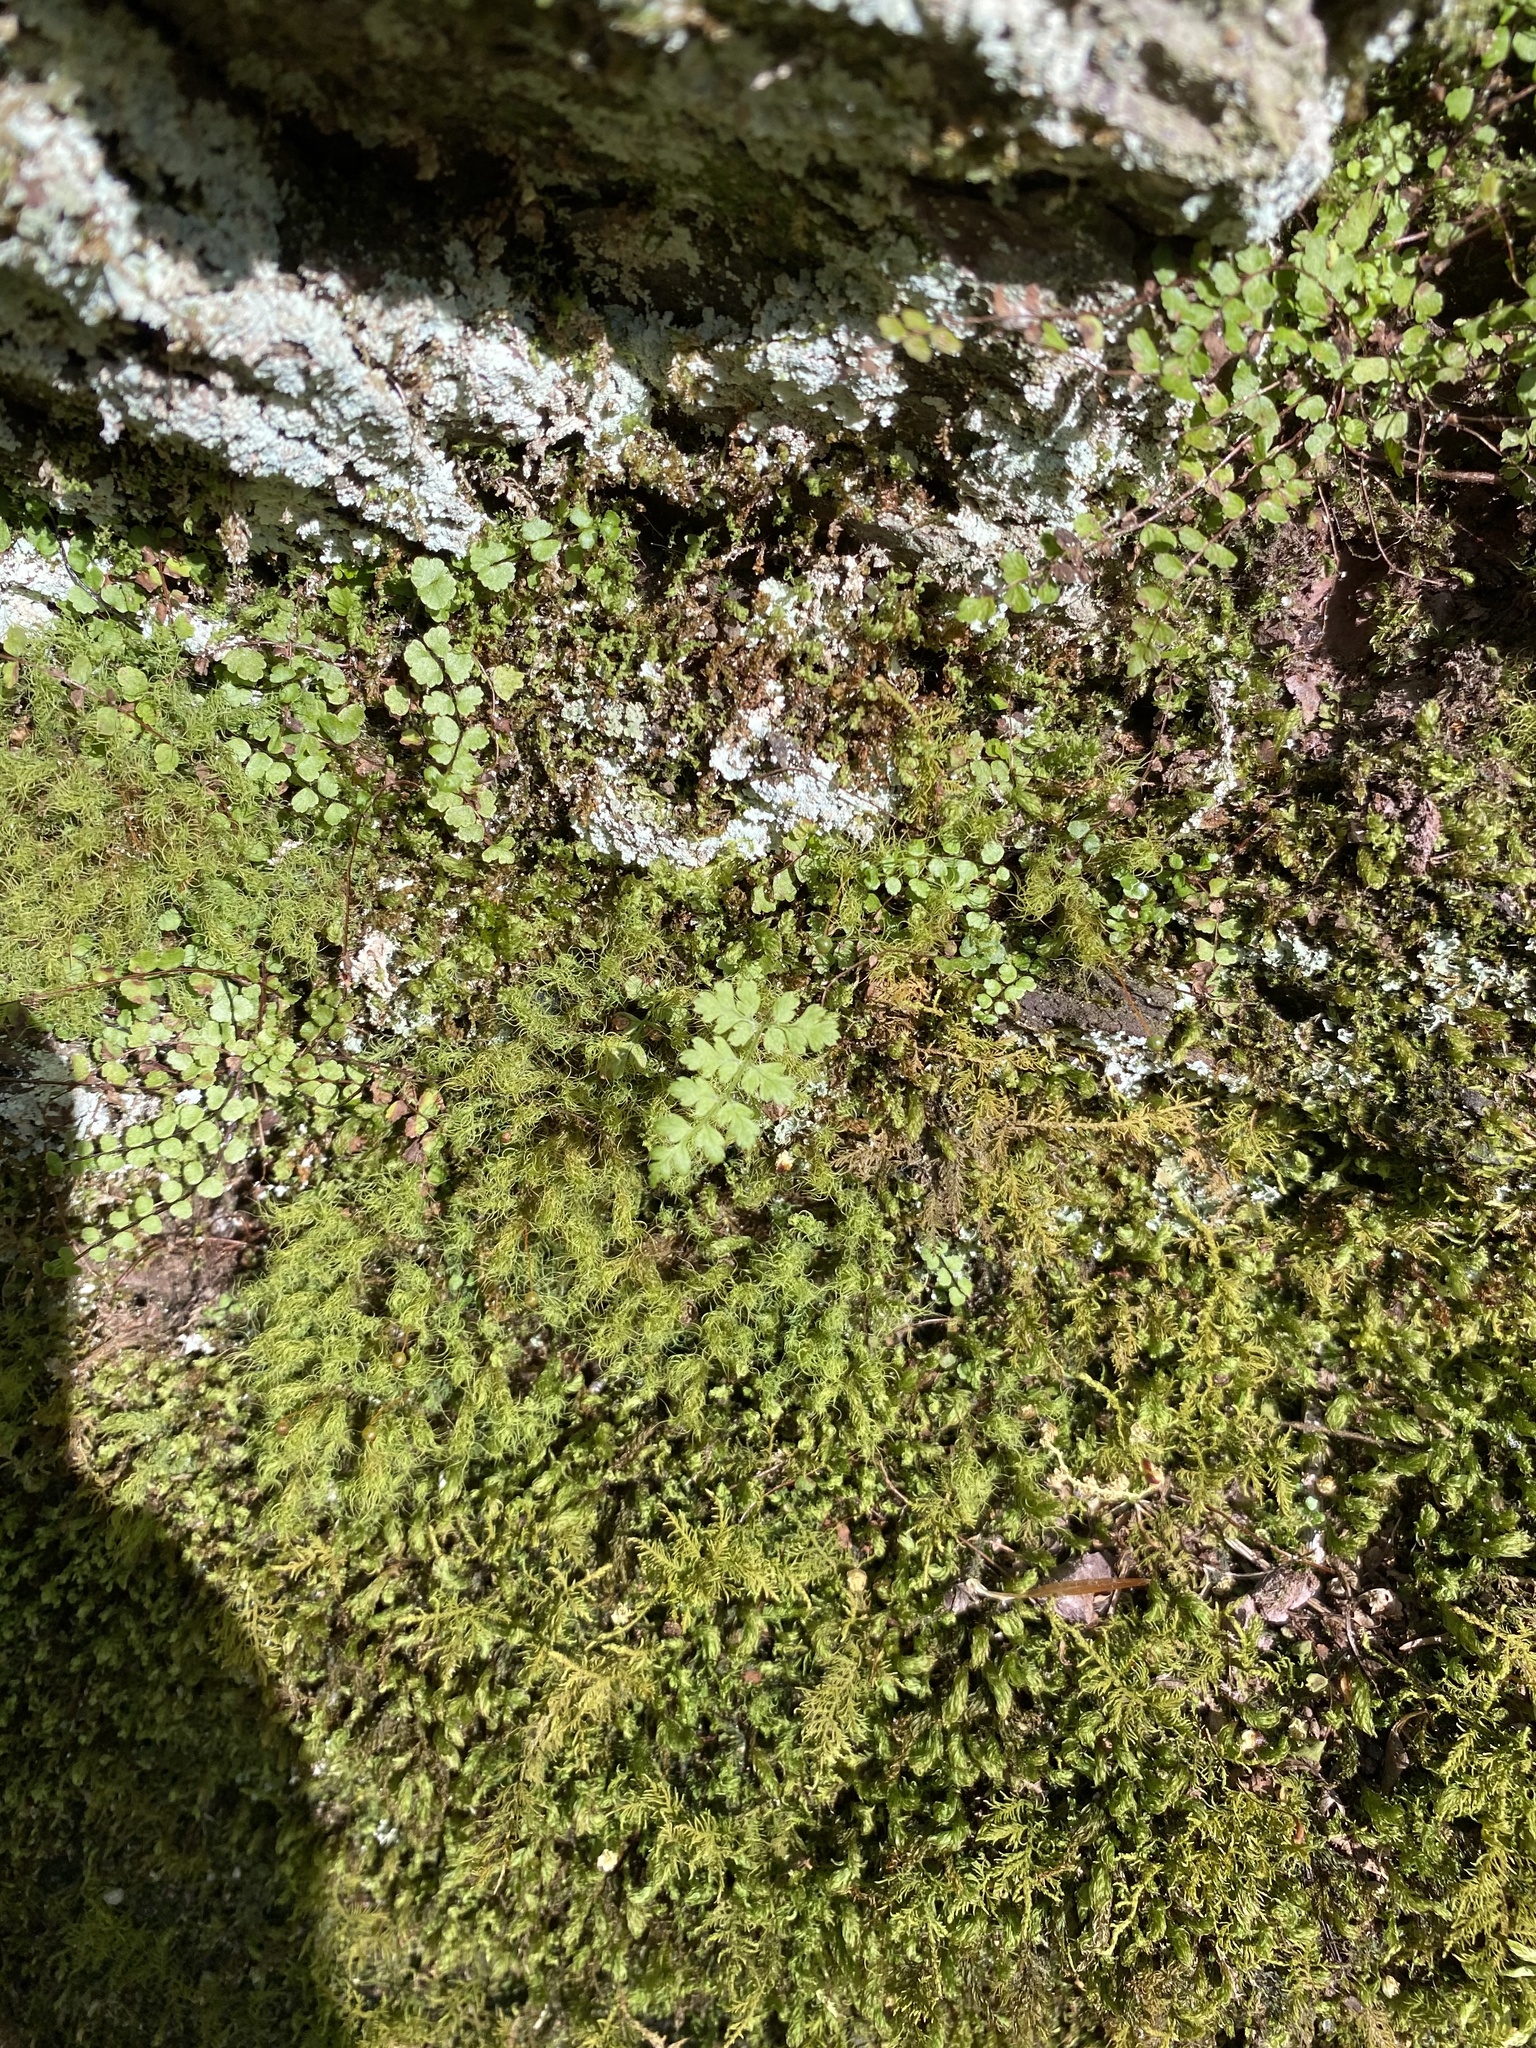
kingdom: Plantae
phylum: Tracheophyta
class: Polypodiopsida
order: Polypodiales
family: Aspleniaceae
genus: Asplenium
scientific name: Asplenium trichomanes
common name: Maidenhair spleenwort
